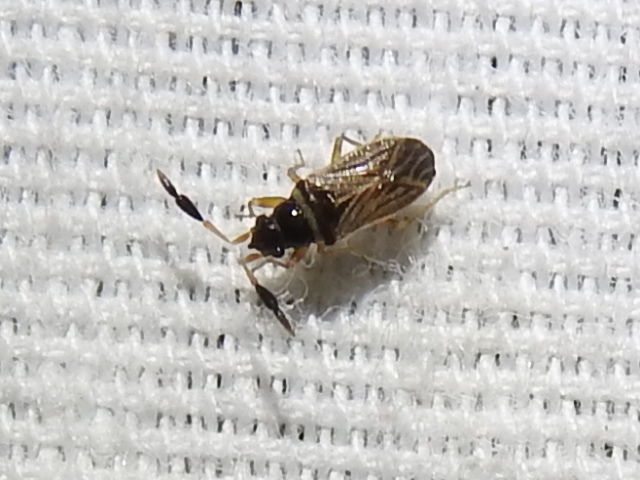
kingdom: Animalia
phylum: Arthropoda
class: Insecta
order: Hemiptera
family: Rhyparochromidae
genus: Ptochiomera
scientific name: Ptochiomera nodosa
